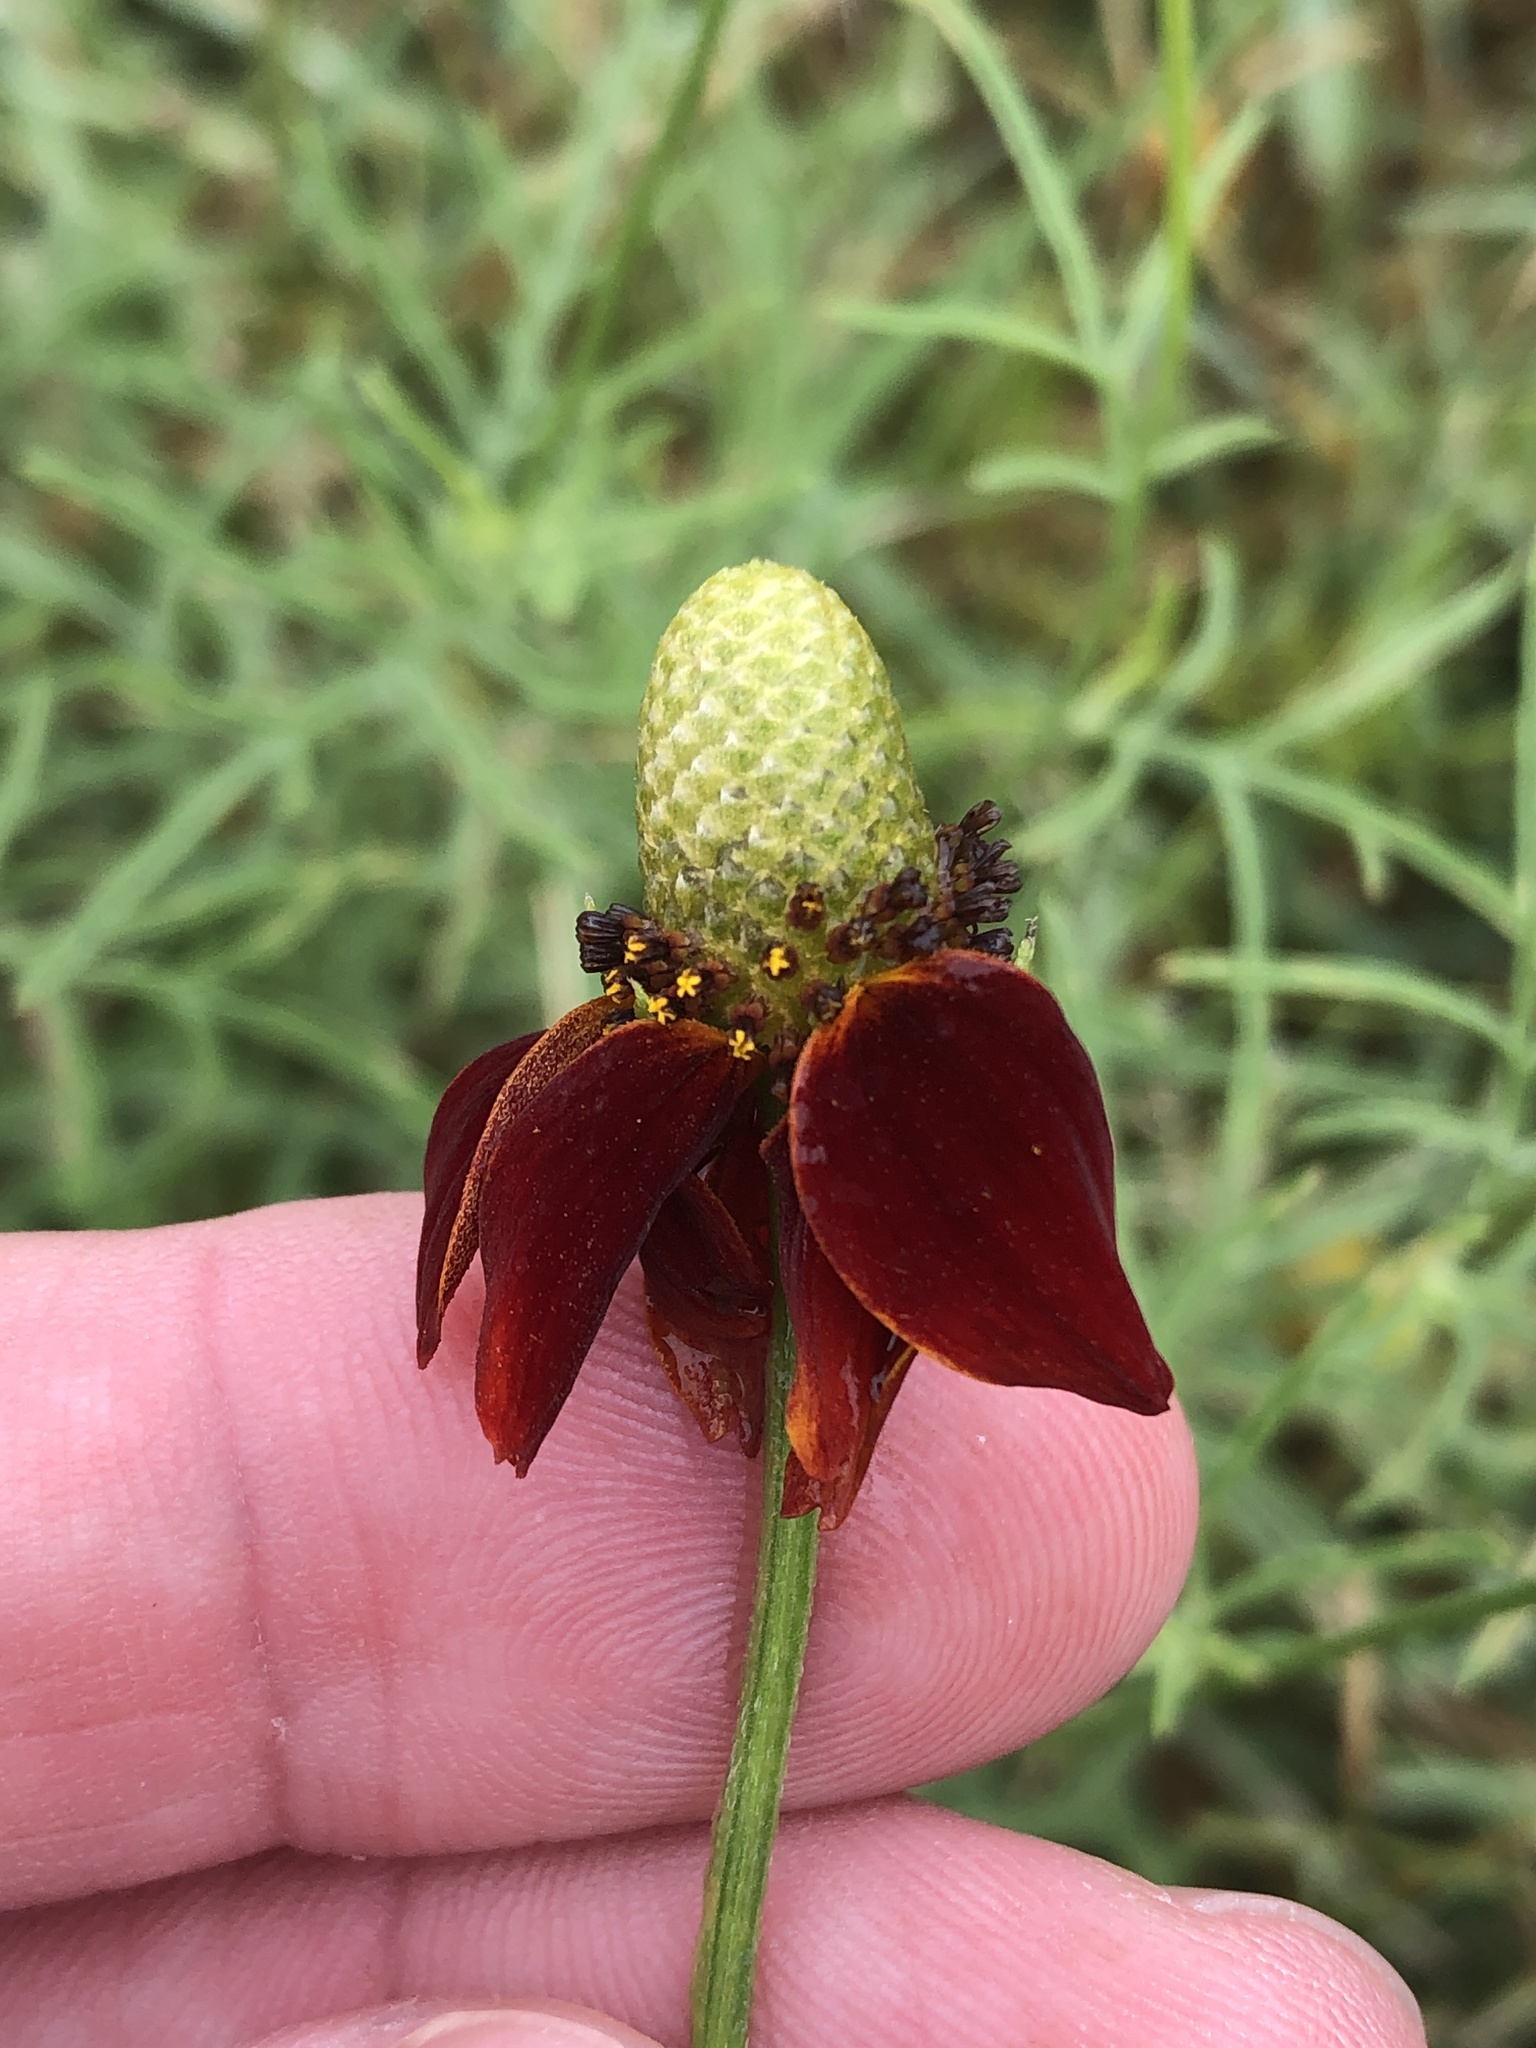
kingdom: Plantae
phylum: Tracheophyta
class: Magnoliopsida
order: Asterales
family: Asteraceae
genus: Ratibida
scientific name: Ratibida columnifera
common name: Prairie coneflower
